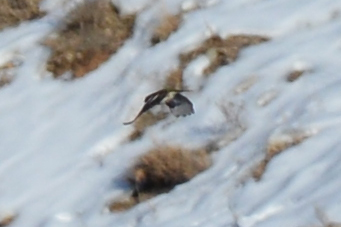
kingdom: Animalia
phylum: Chordata
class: Aves
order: Passeriformes
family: Passeridae
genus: Passer
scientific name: Passer domesticus
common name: House sparrow
